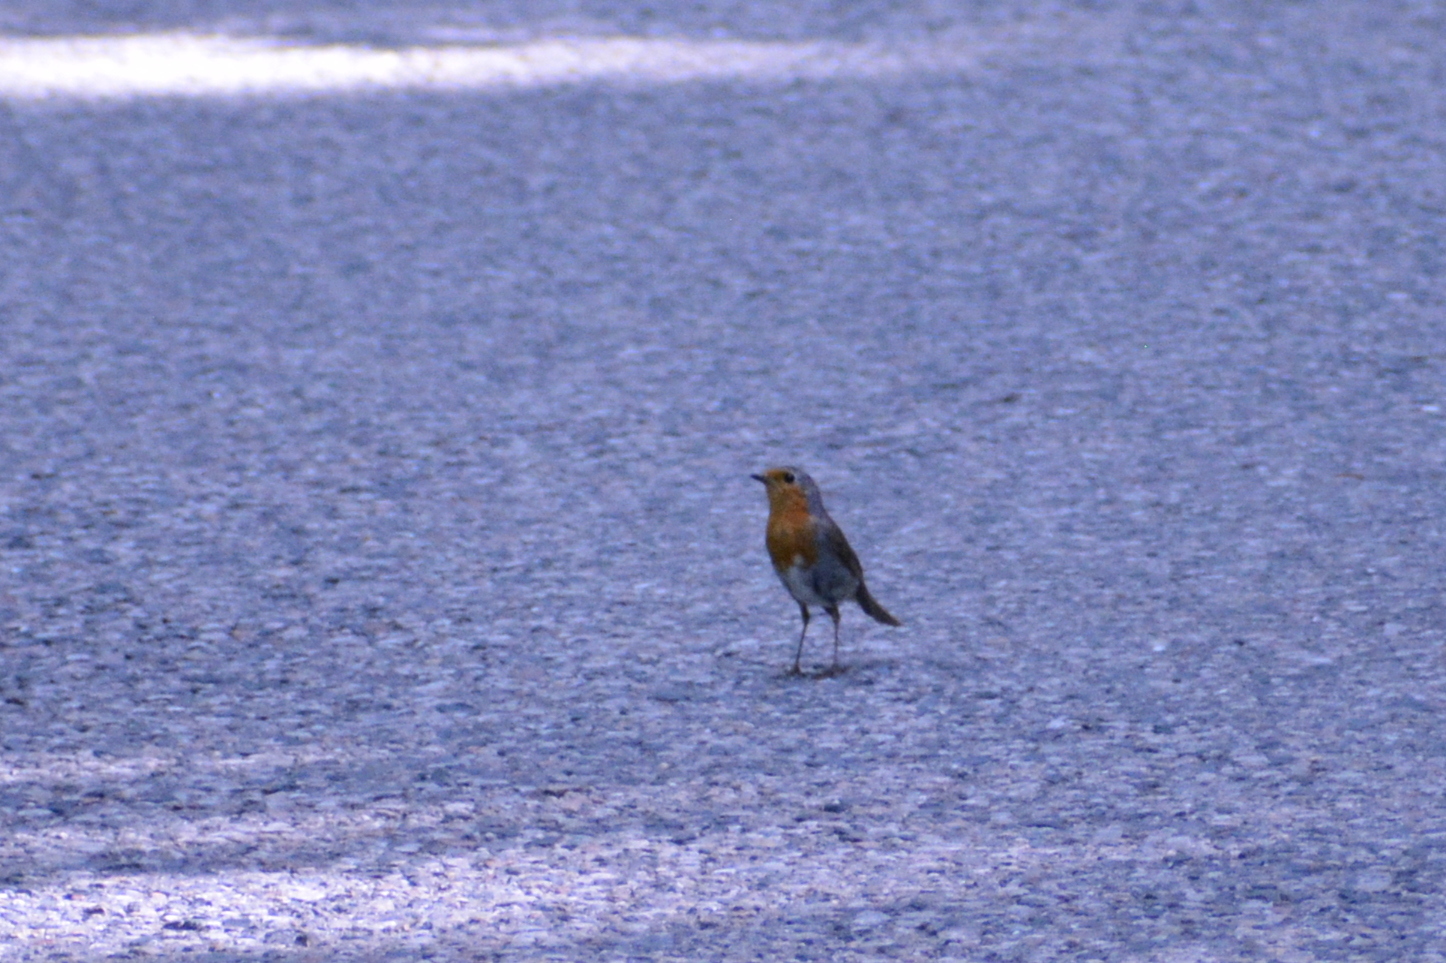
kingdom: Animalia
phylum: Chordata
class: Aves
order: Passeriformes
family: Muscicapidae
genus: Erithacus
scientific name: Erithacus rubecula
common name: European robin
